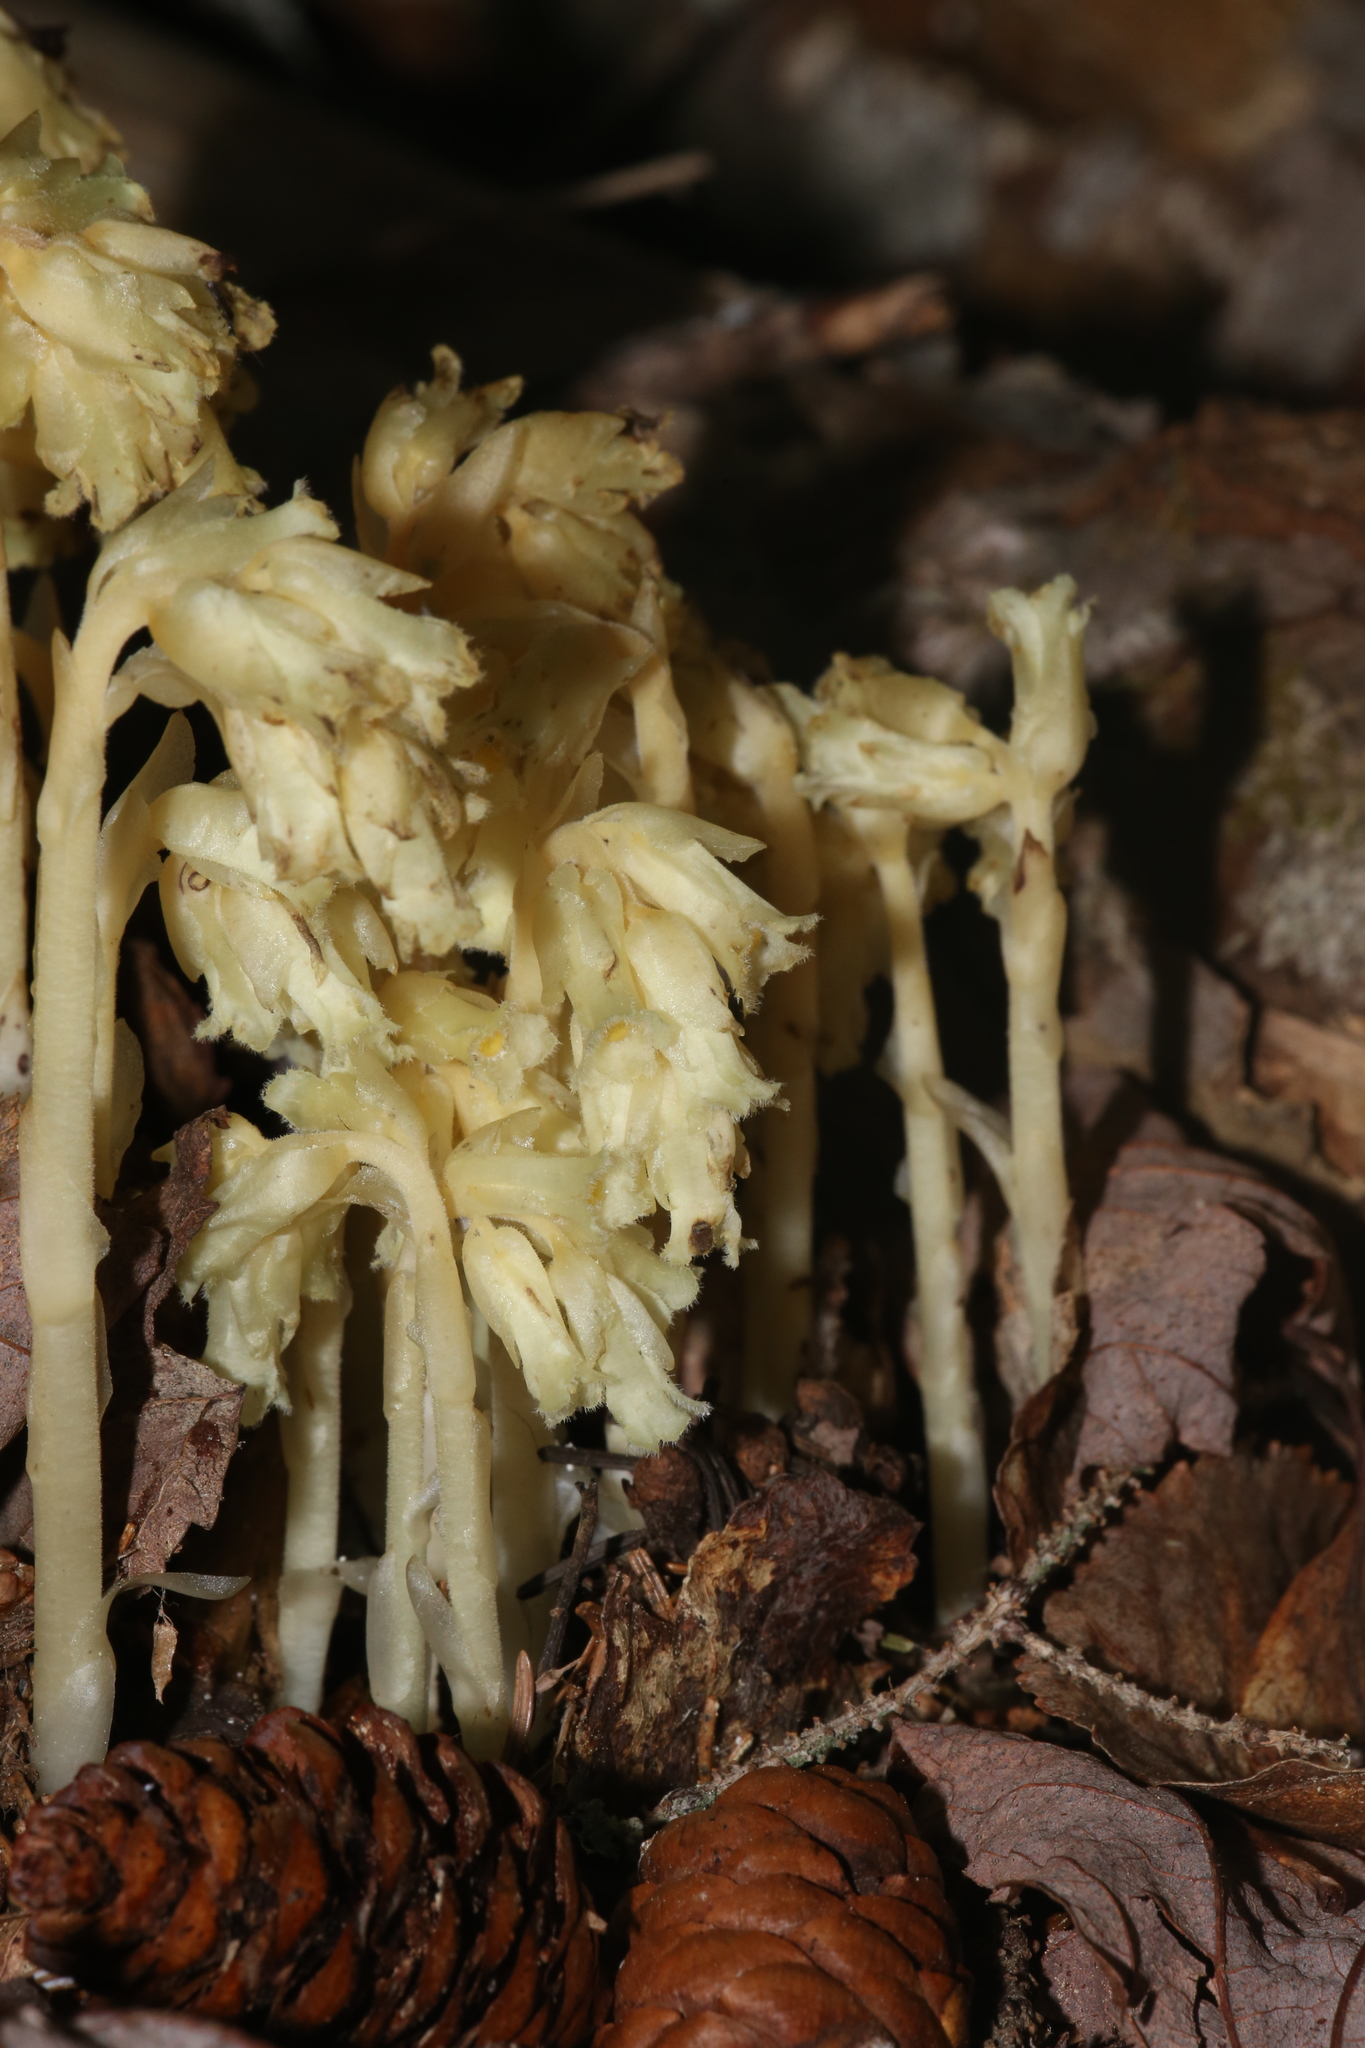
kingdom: Plantae
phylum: Tracheophyta
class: Magnoliopsida
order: Ericales
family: Ericaceae
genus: Hypopitys
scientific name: Hypopitys monotropa
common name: Yellow bird's-nest
